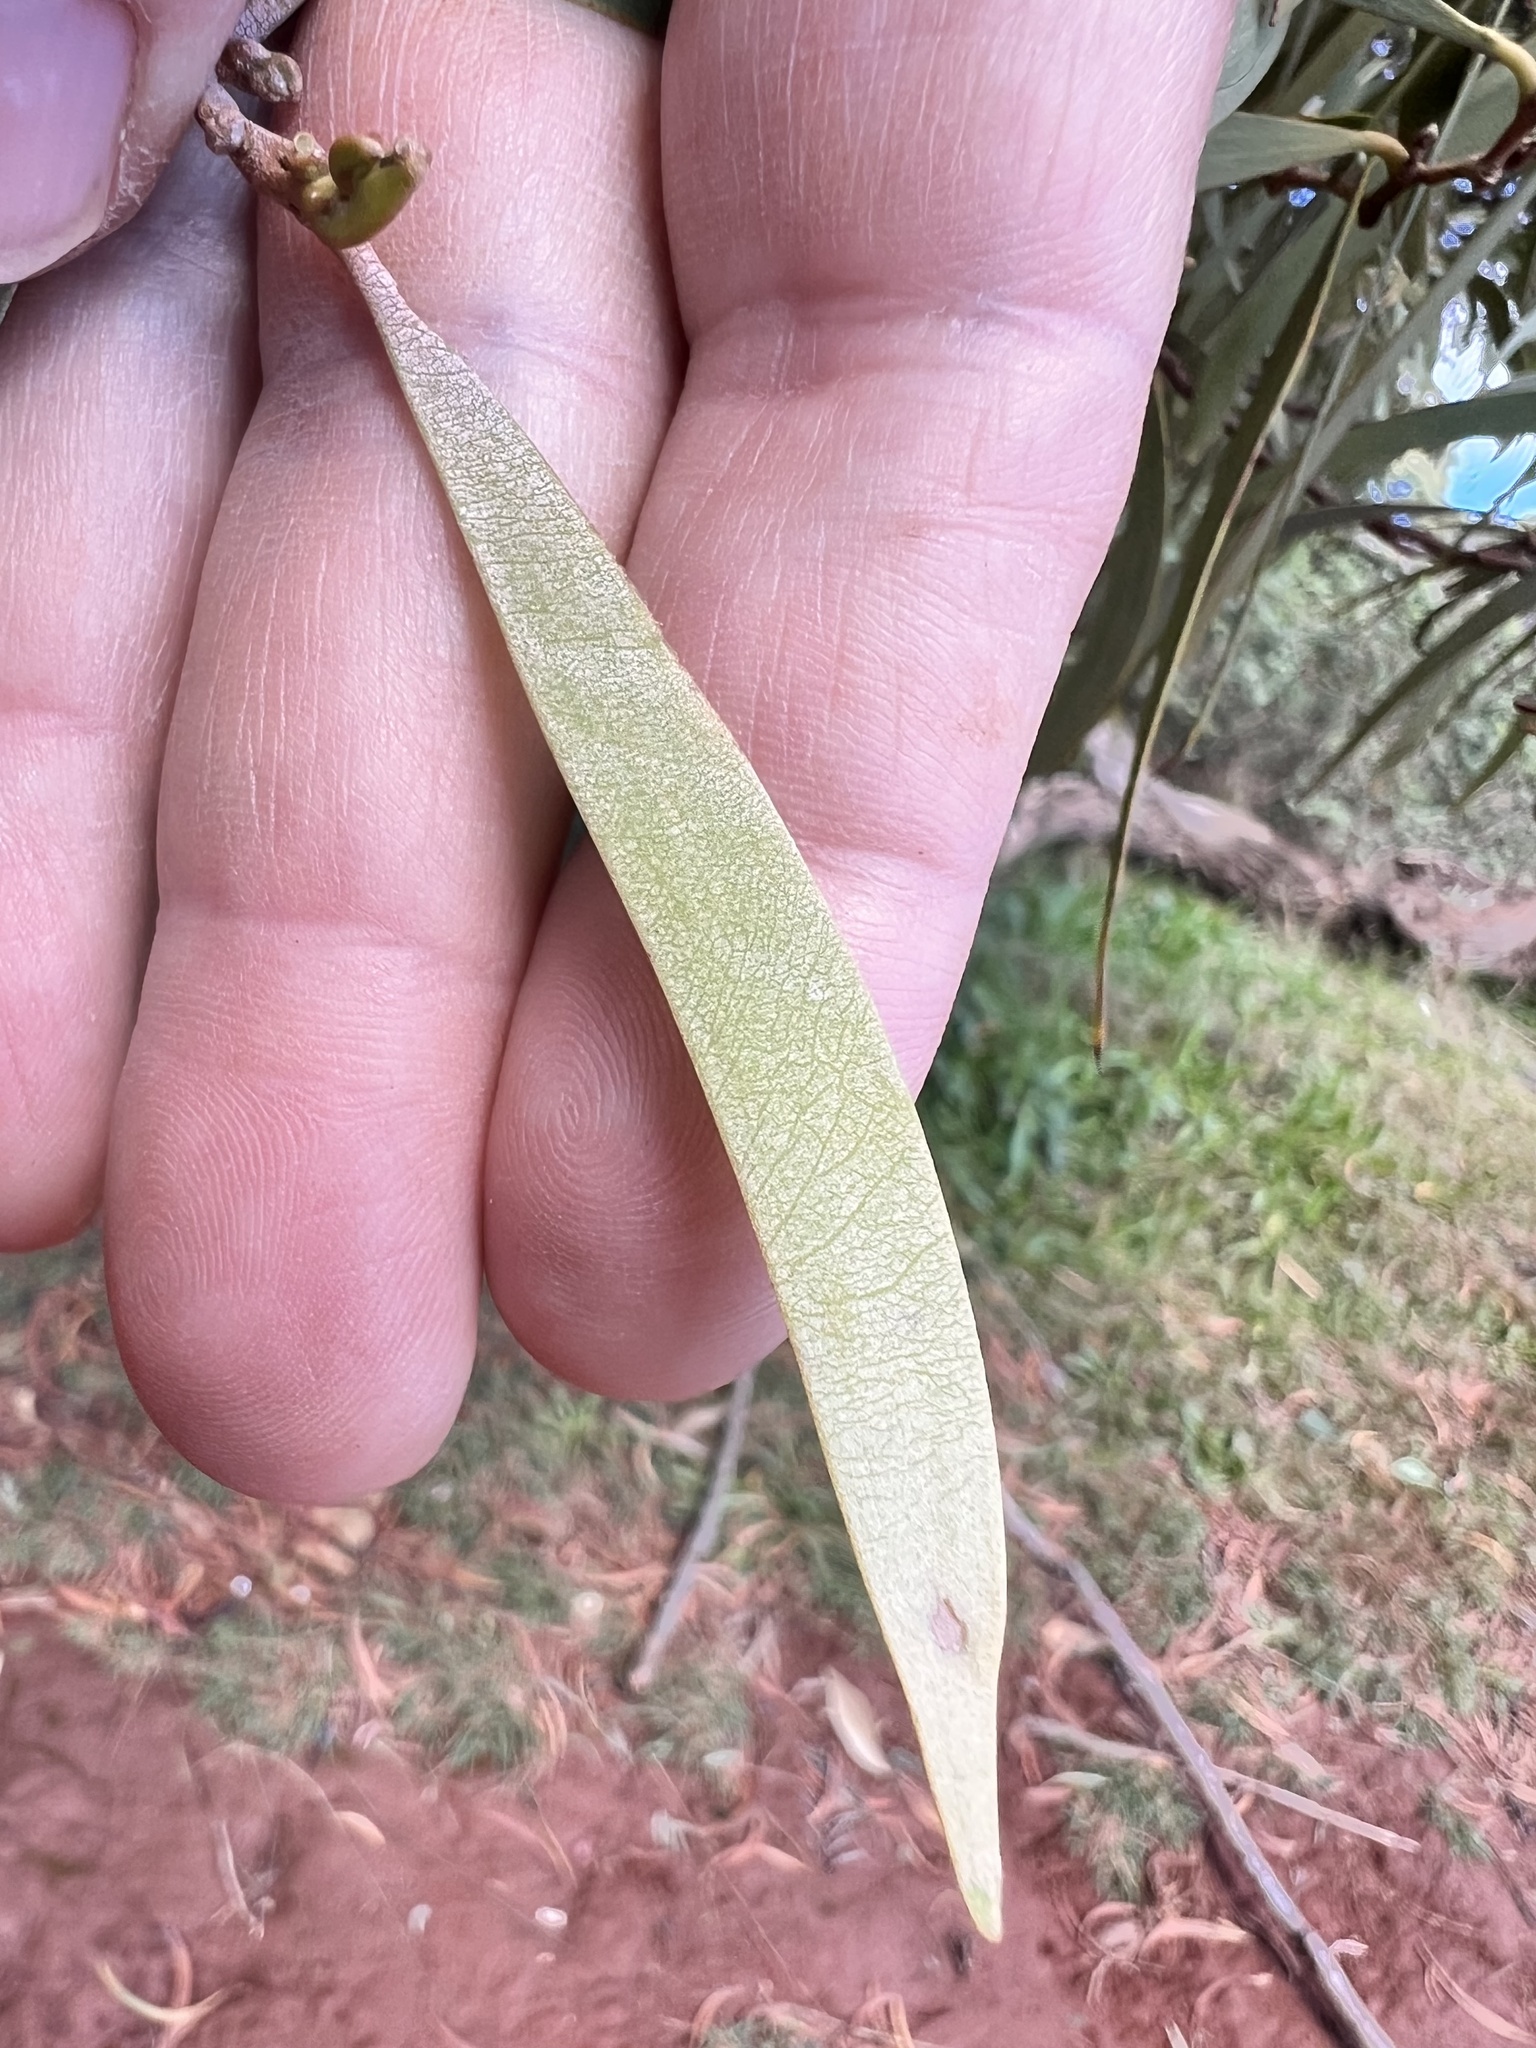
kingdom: Plantae
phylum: Tracheophyta
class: Magnoliopsida
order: Fabales
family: Fabaceae
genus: Acacia
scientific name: Acacia koa
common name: Gray koa
